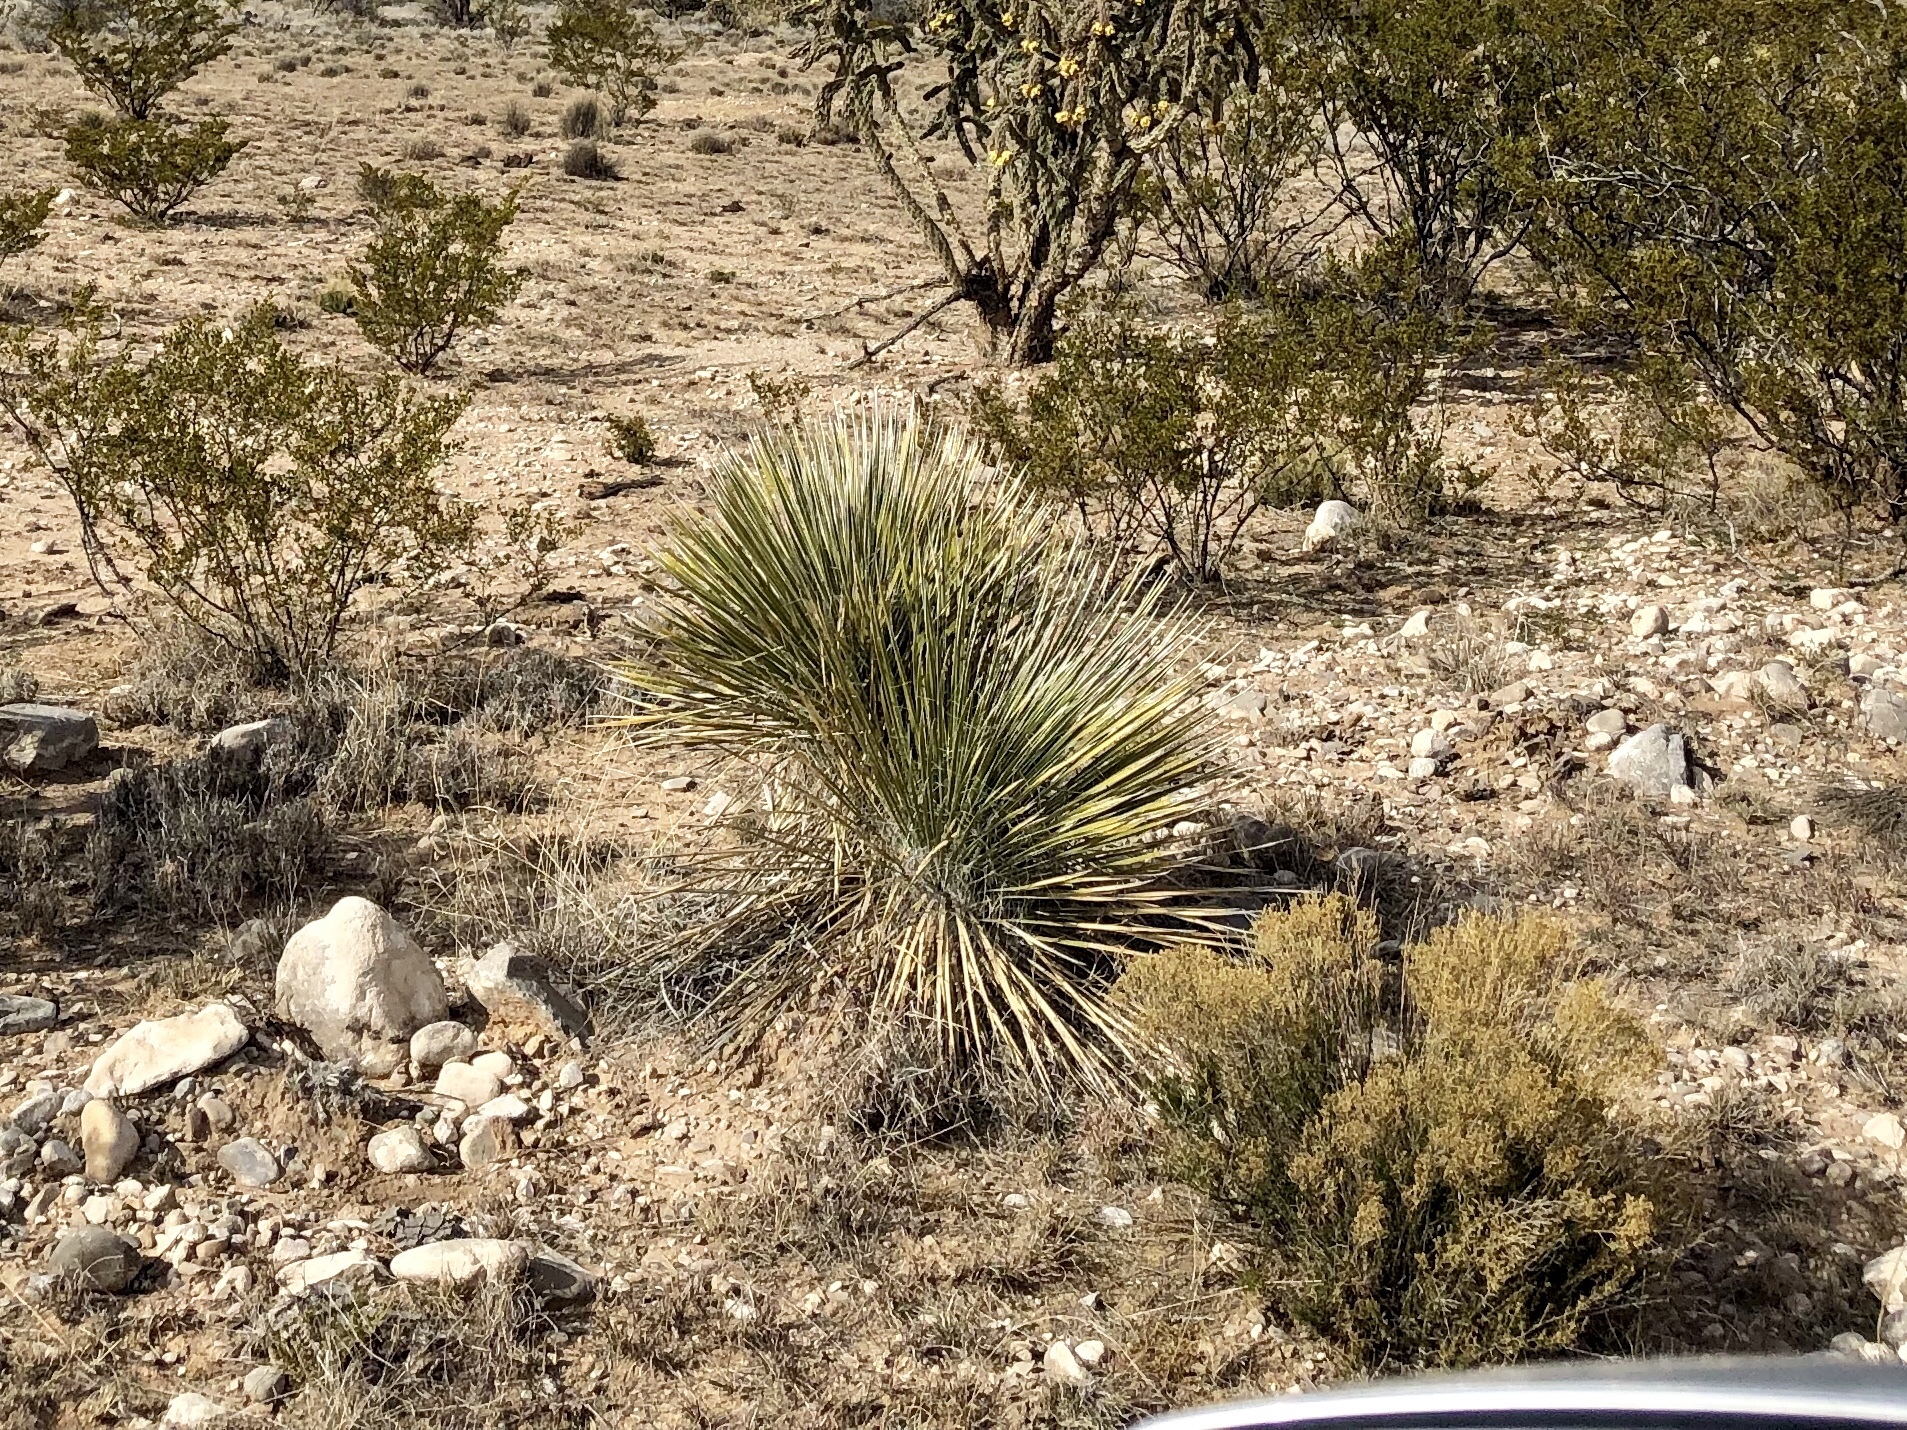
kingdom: Plantae
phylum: Tracheophyta
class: Liliopsida
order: Asparagales
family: Asparagaceae
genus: Yucca
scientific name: Yucca elata
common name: Palmella
